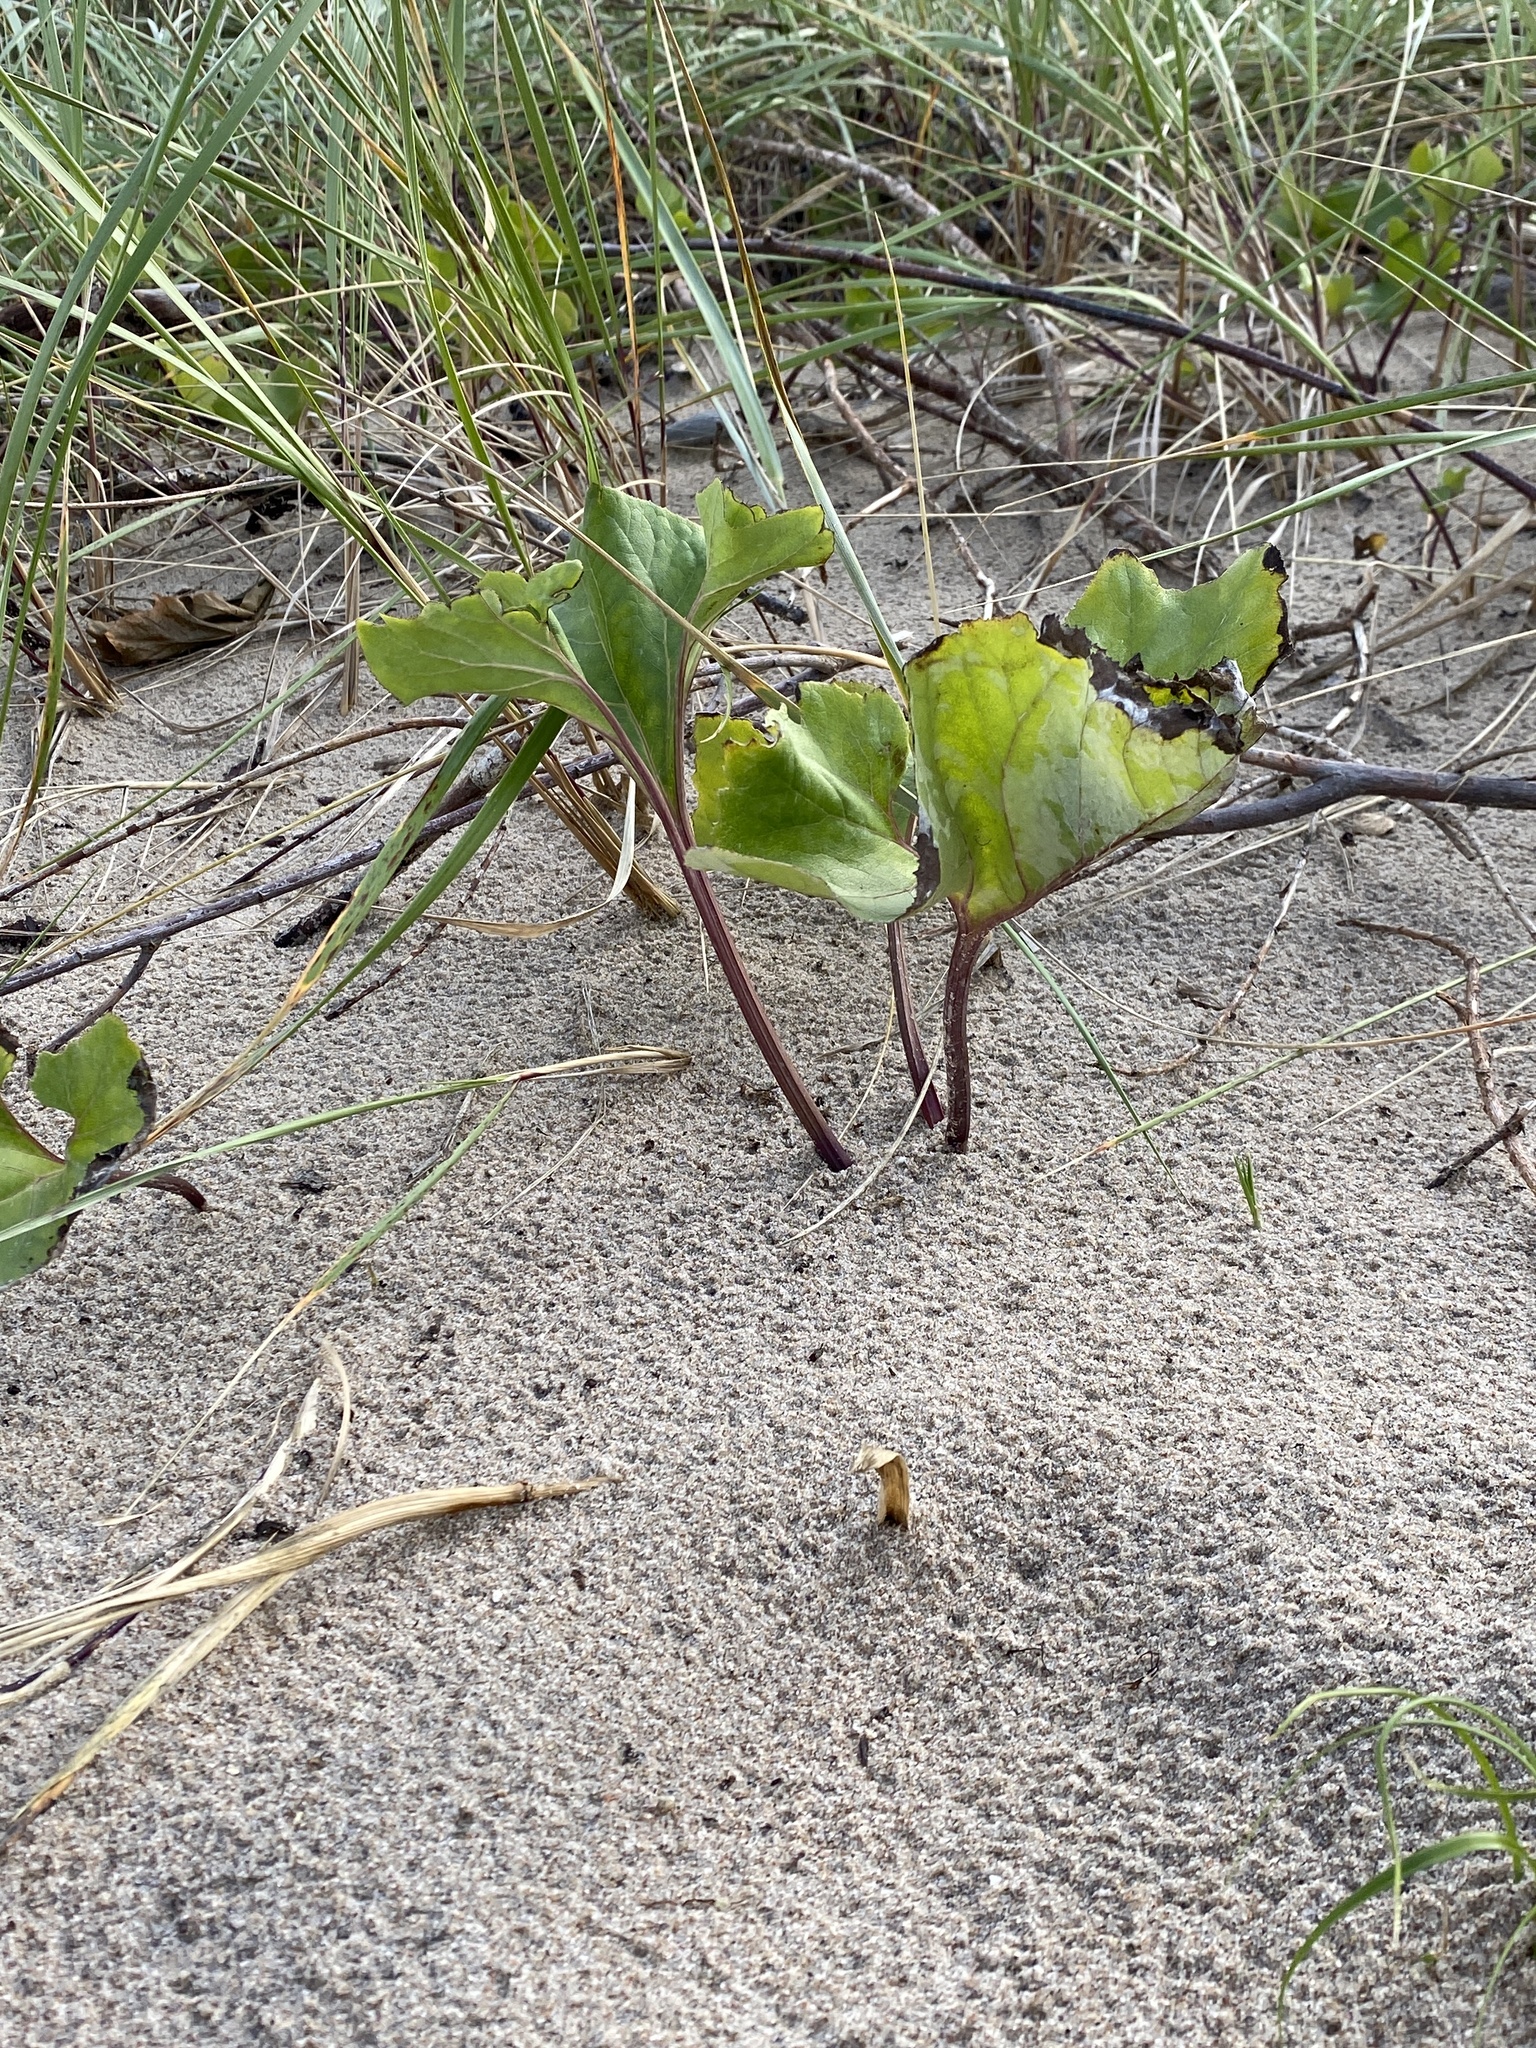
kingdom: Plantae
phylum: Tracheophyta
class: Magnoliopsida
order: Asterales
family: Asteraceae
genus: Petasites
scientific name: Petasites spurius
